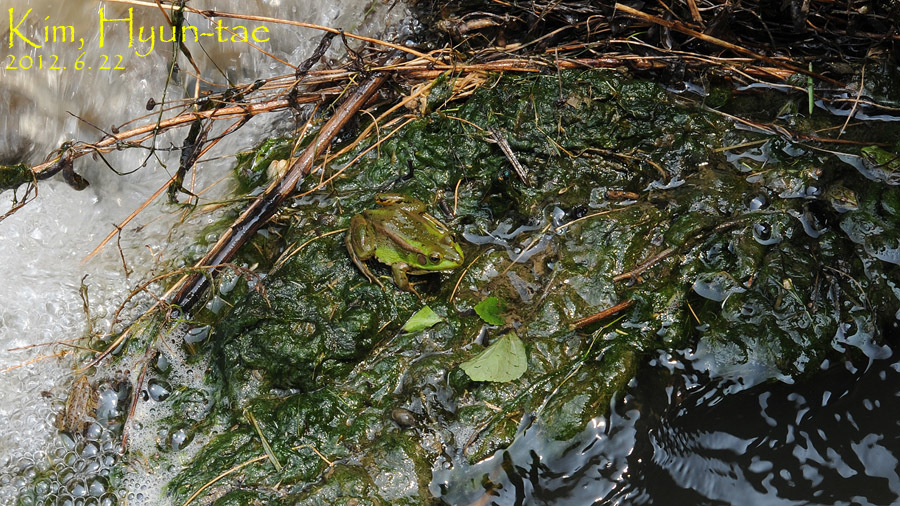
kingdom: Animalia
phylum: Chordata
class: Amphibia
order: Anura
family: Ranidae
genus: Pelophylax
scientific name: Pelophylax chosenicus
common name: Gold-spotted pond frog
